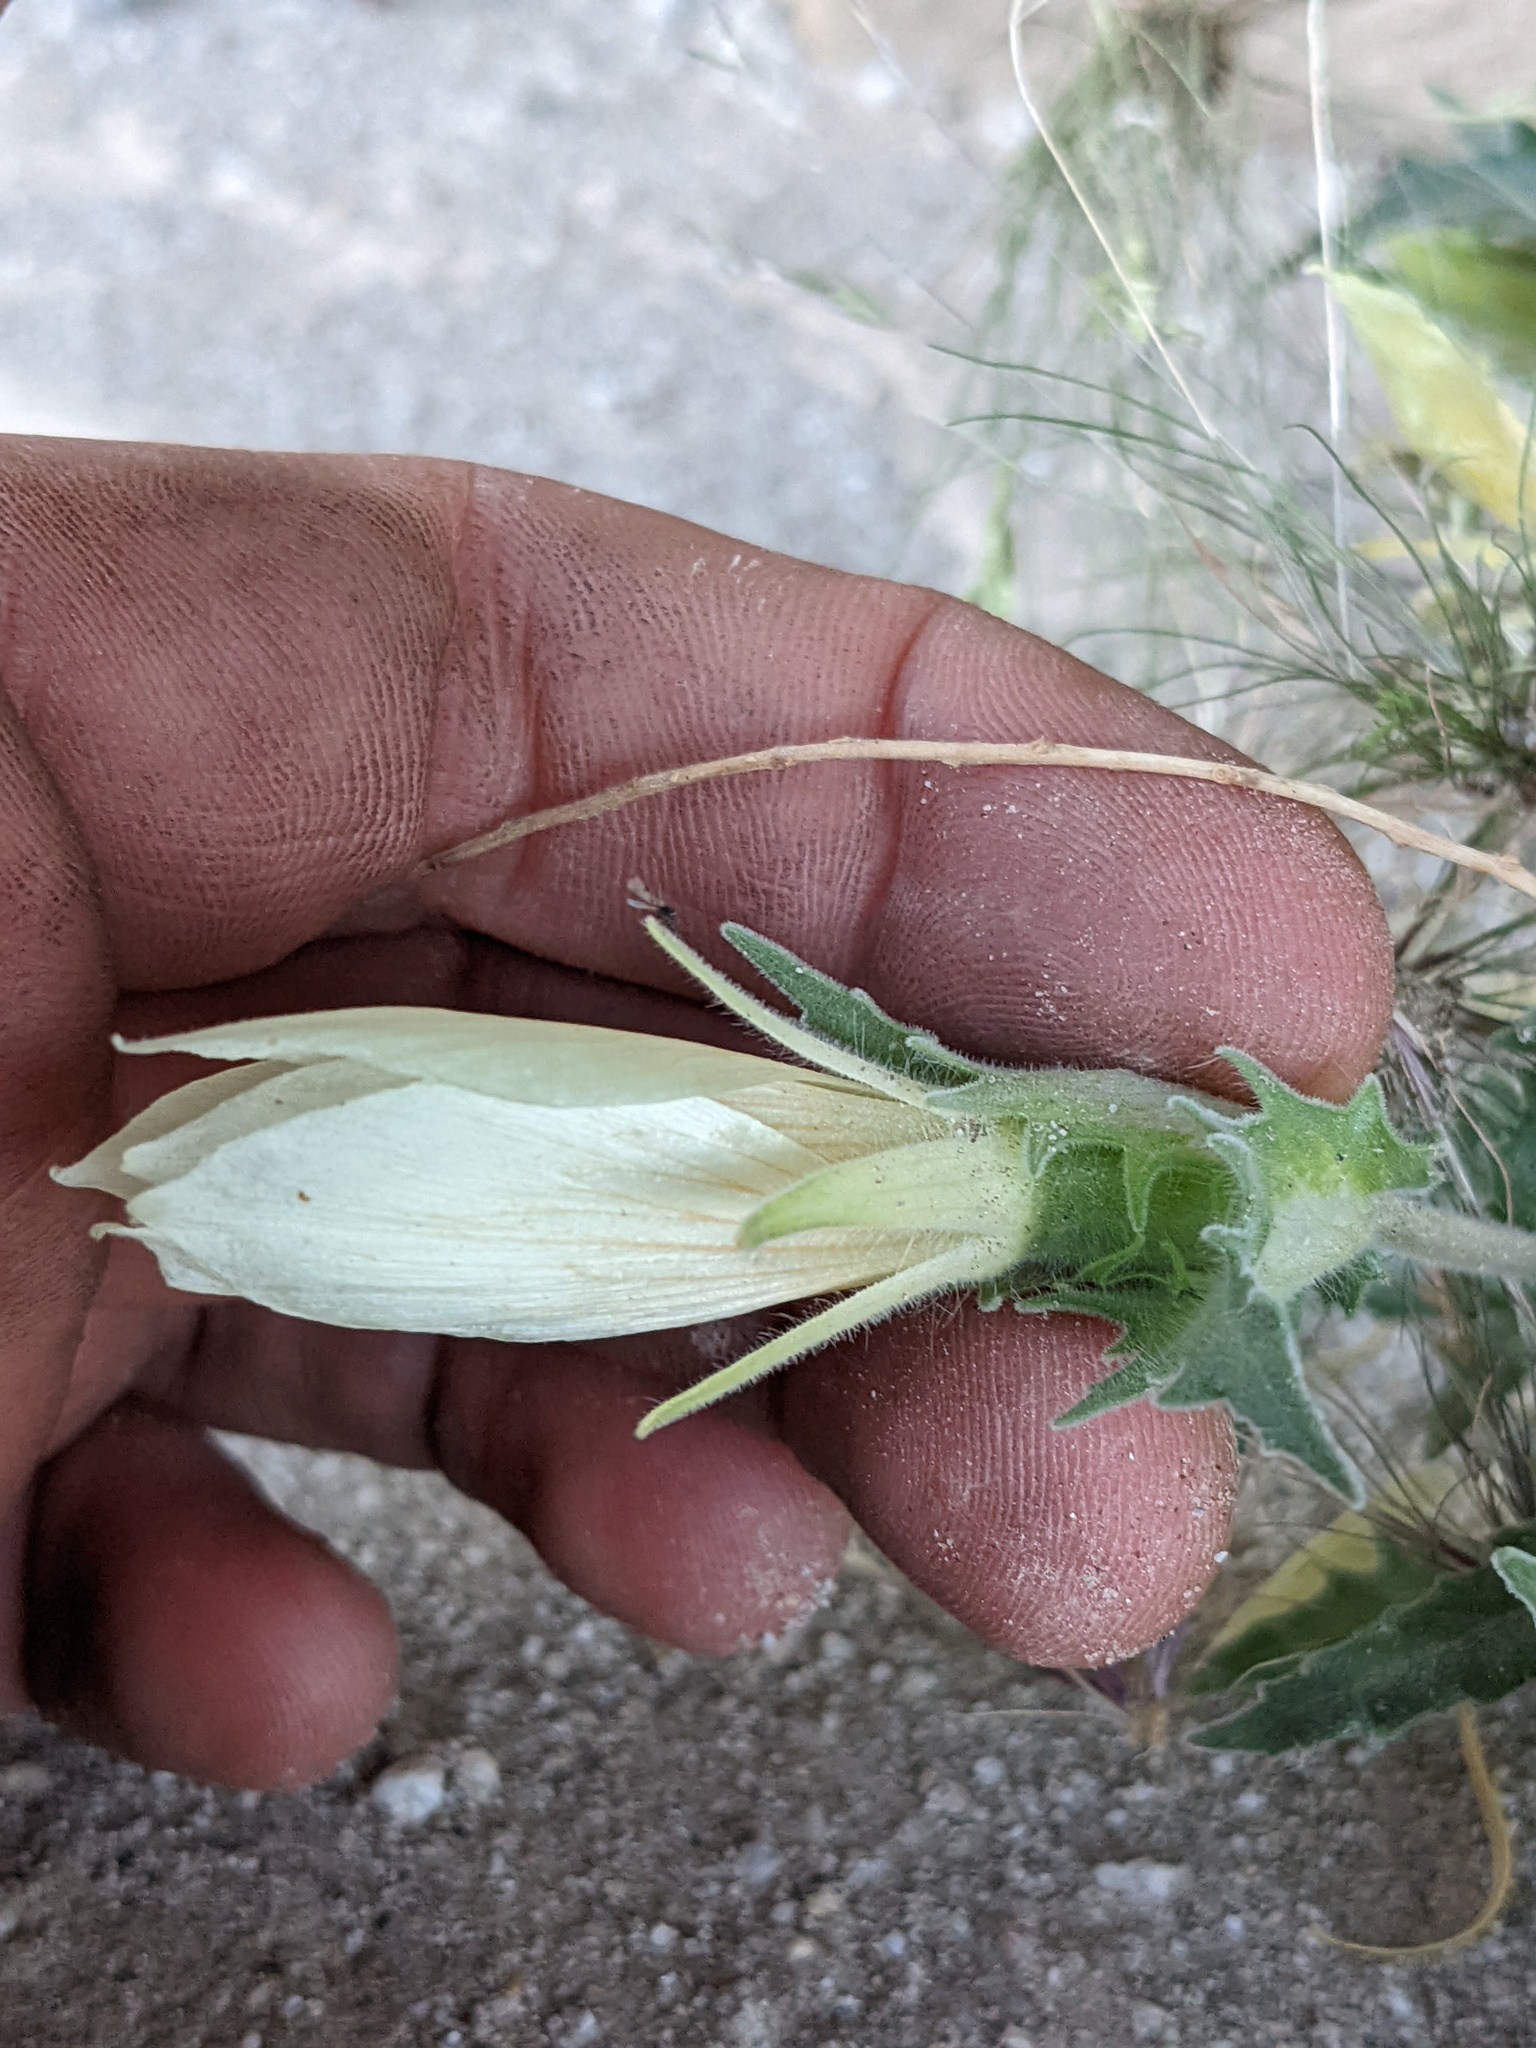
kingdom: Plantae
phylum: Tracheophyta
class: Magnoliopsida
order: Cornales
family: Loasaceae
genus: Mentzelia
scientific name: Mentzelia involucrata
